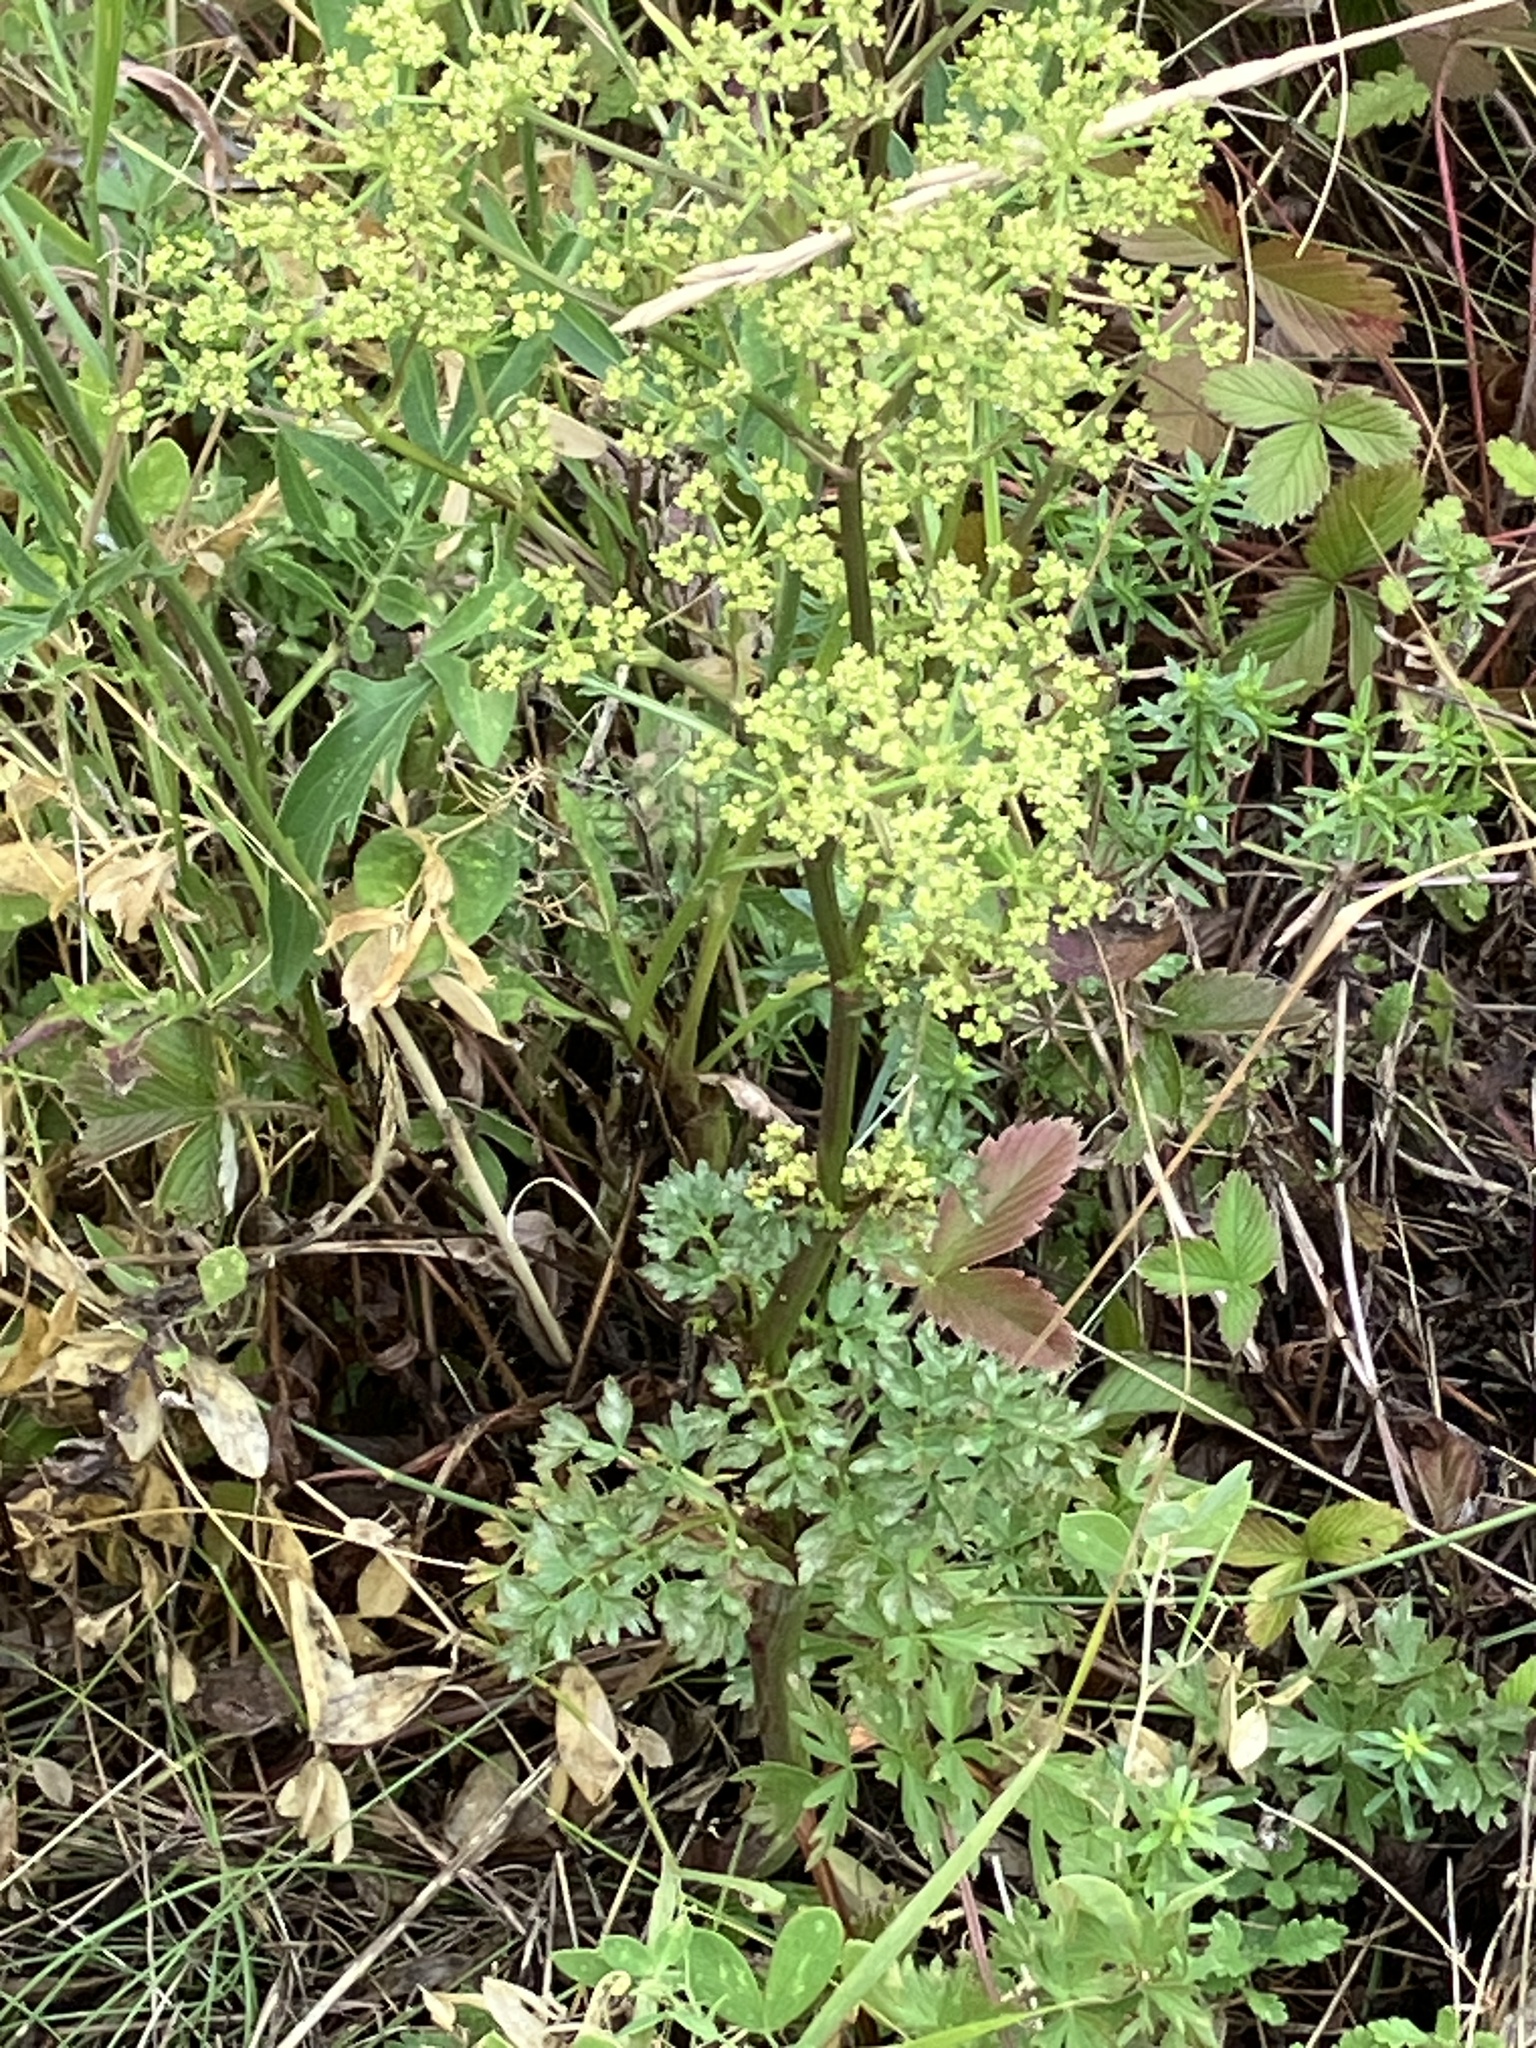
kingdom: Plantae
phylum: Tracheophyta
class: Magnoliopsida
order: Apiales
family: Apiaceae
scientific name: Apiaceae
